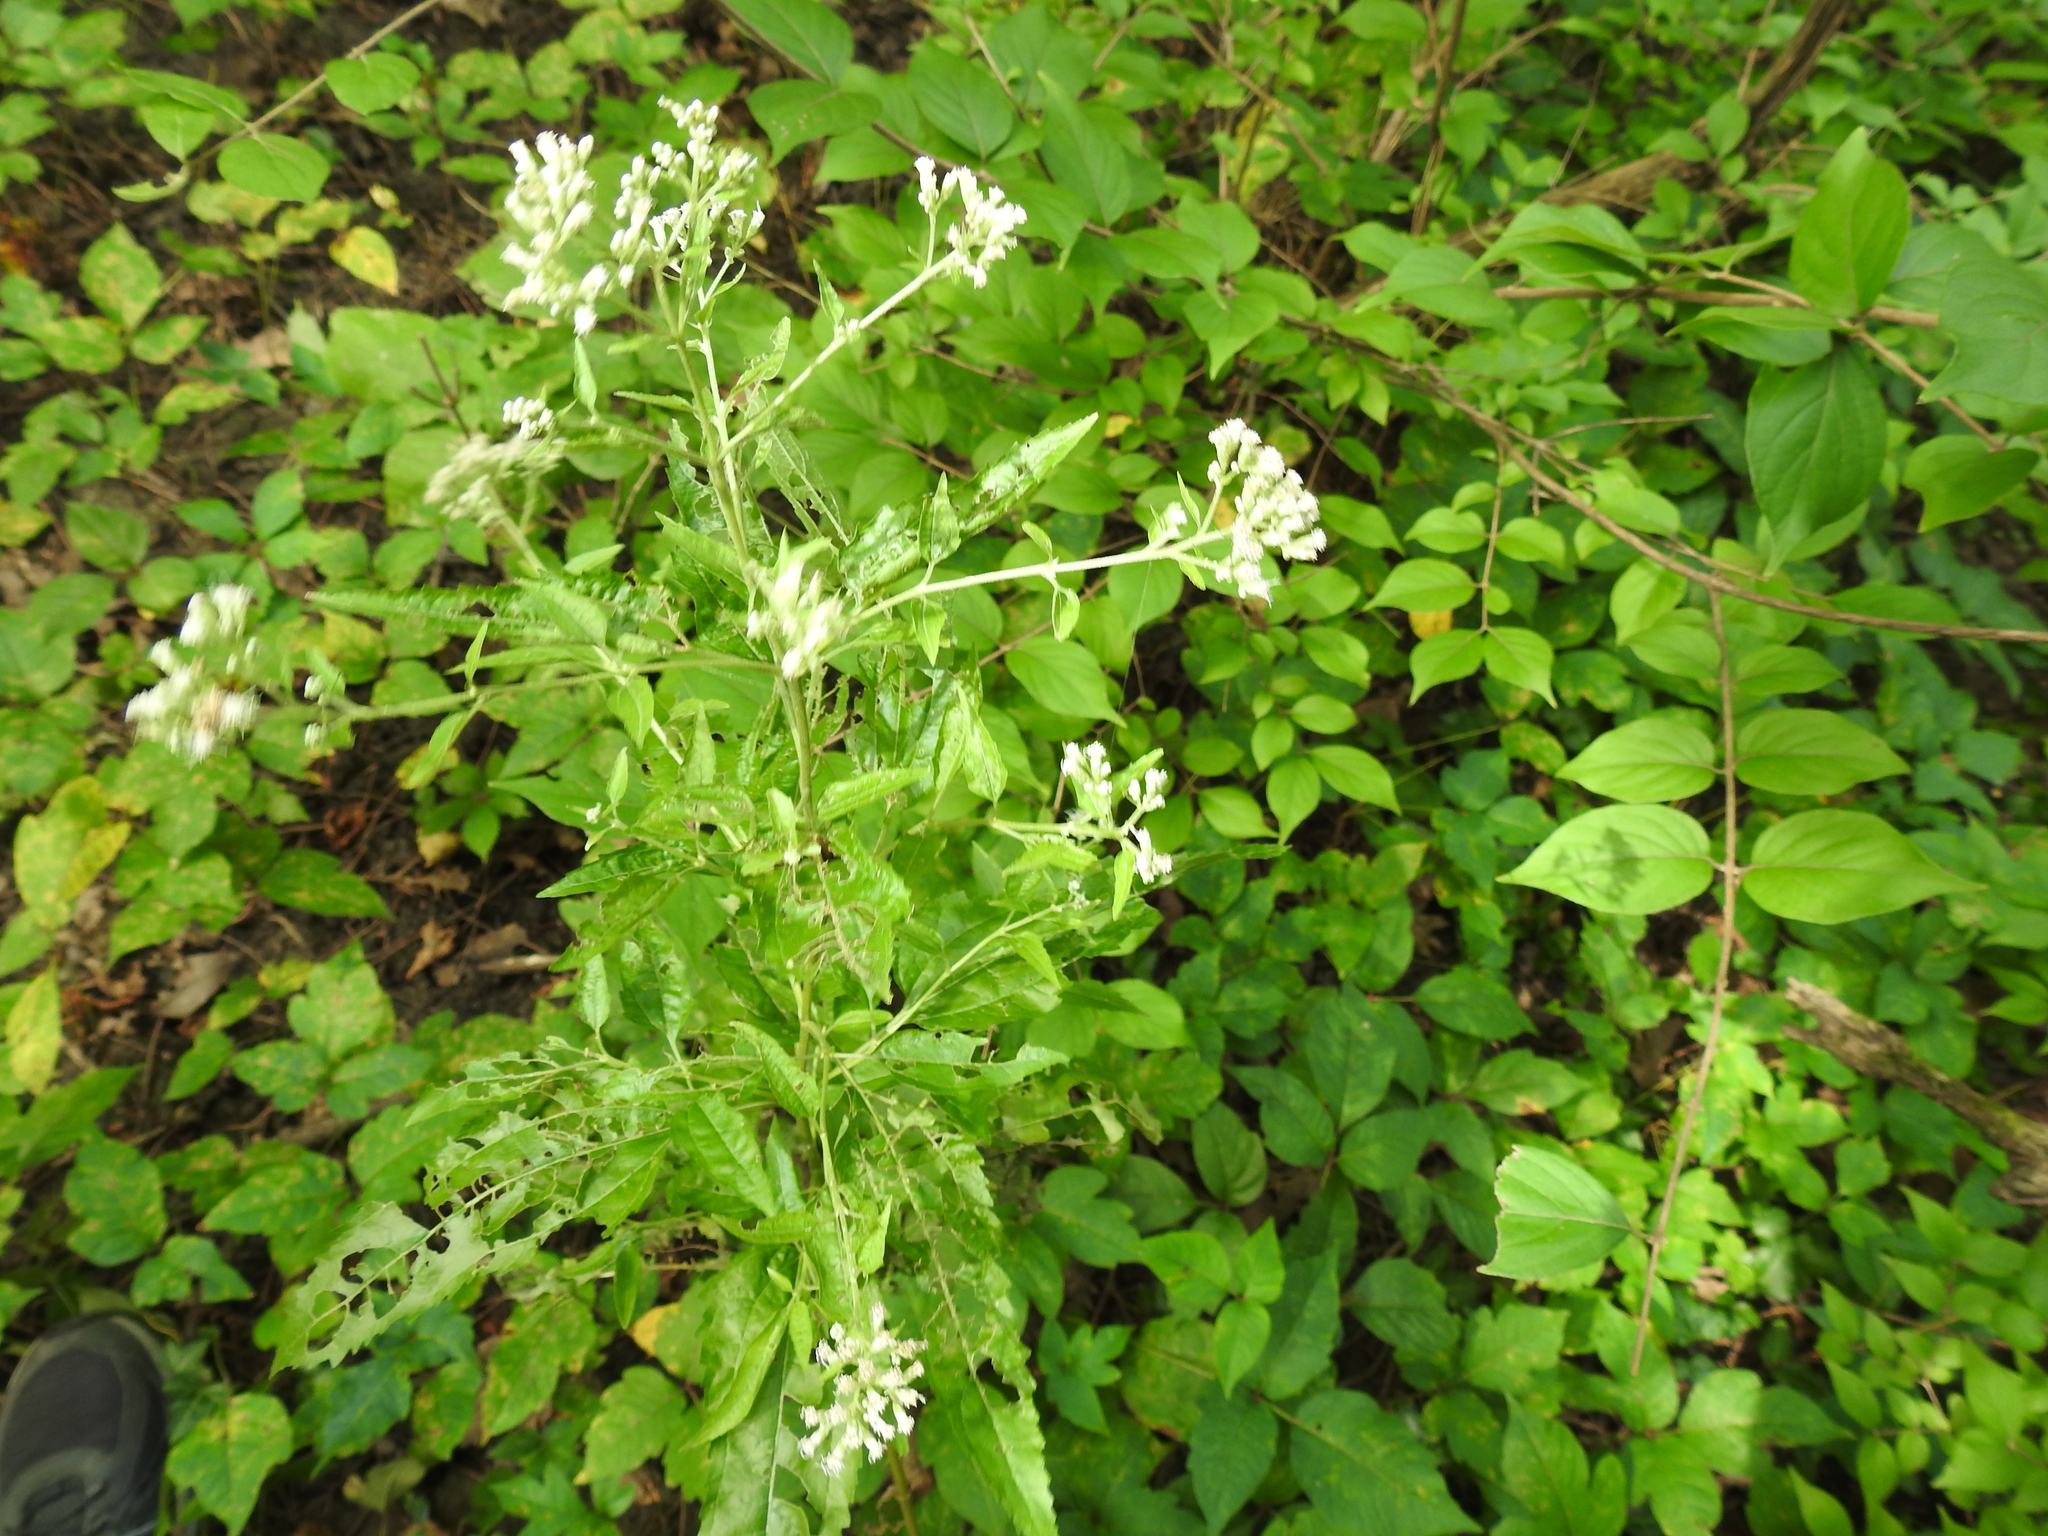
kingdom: Plantae
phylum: Tracheophyta
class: Magnoliopsida
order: Asterales
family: Asteraceae
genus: Eupatorium
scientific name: Eupatorium serotinum
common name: Late boneset
